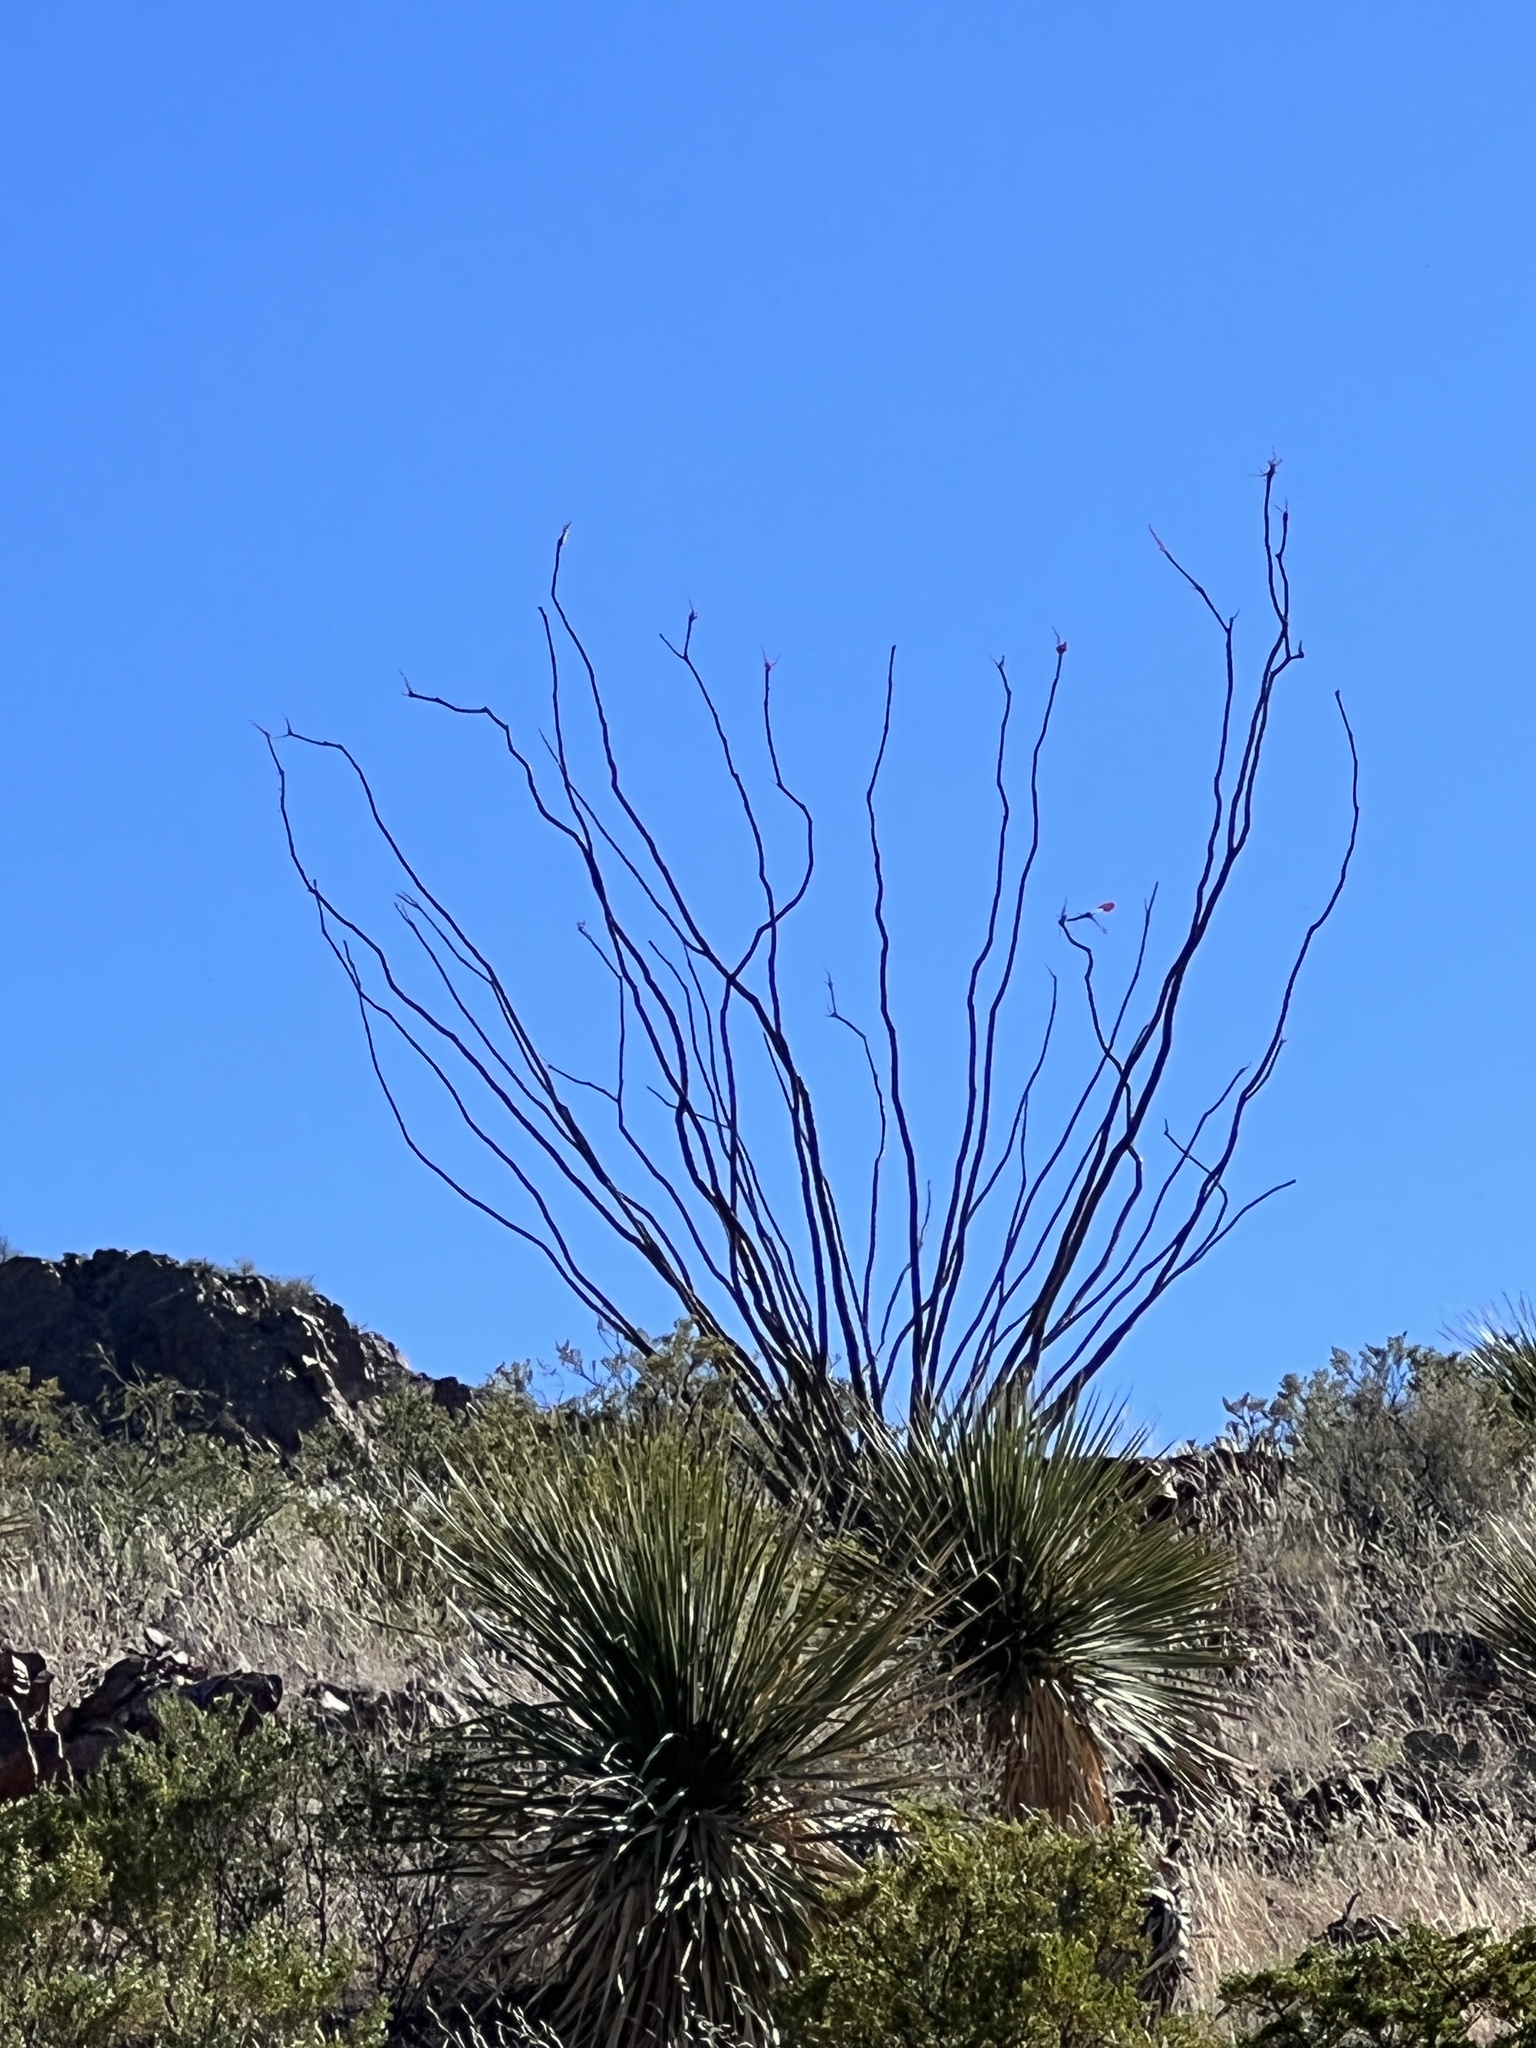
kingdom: Plantae
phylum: Tracheophyta
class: Magnoliopsida
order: Ericales
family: Fouquieriaceae
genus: Fouquieria
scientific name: Fouquieria splendens
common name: Vine-cactus
